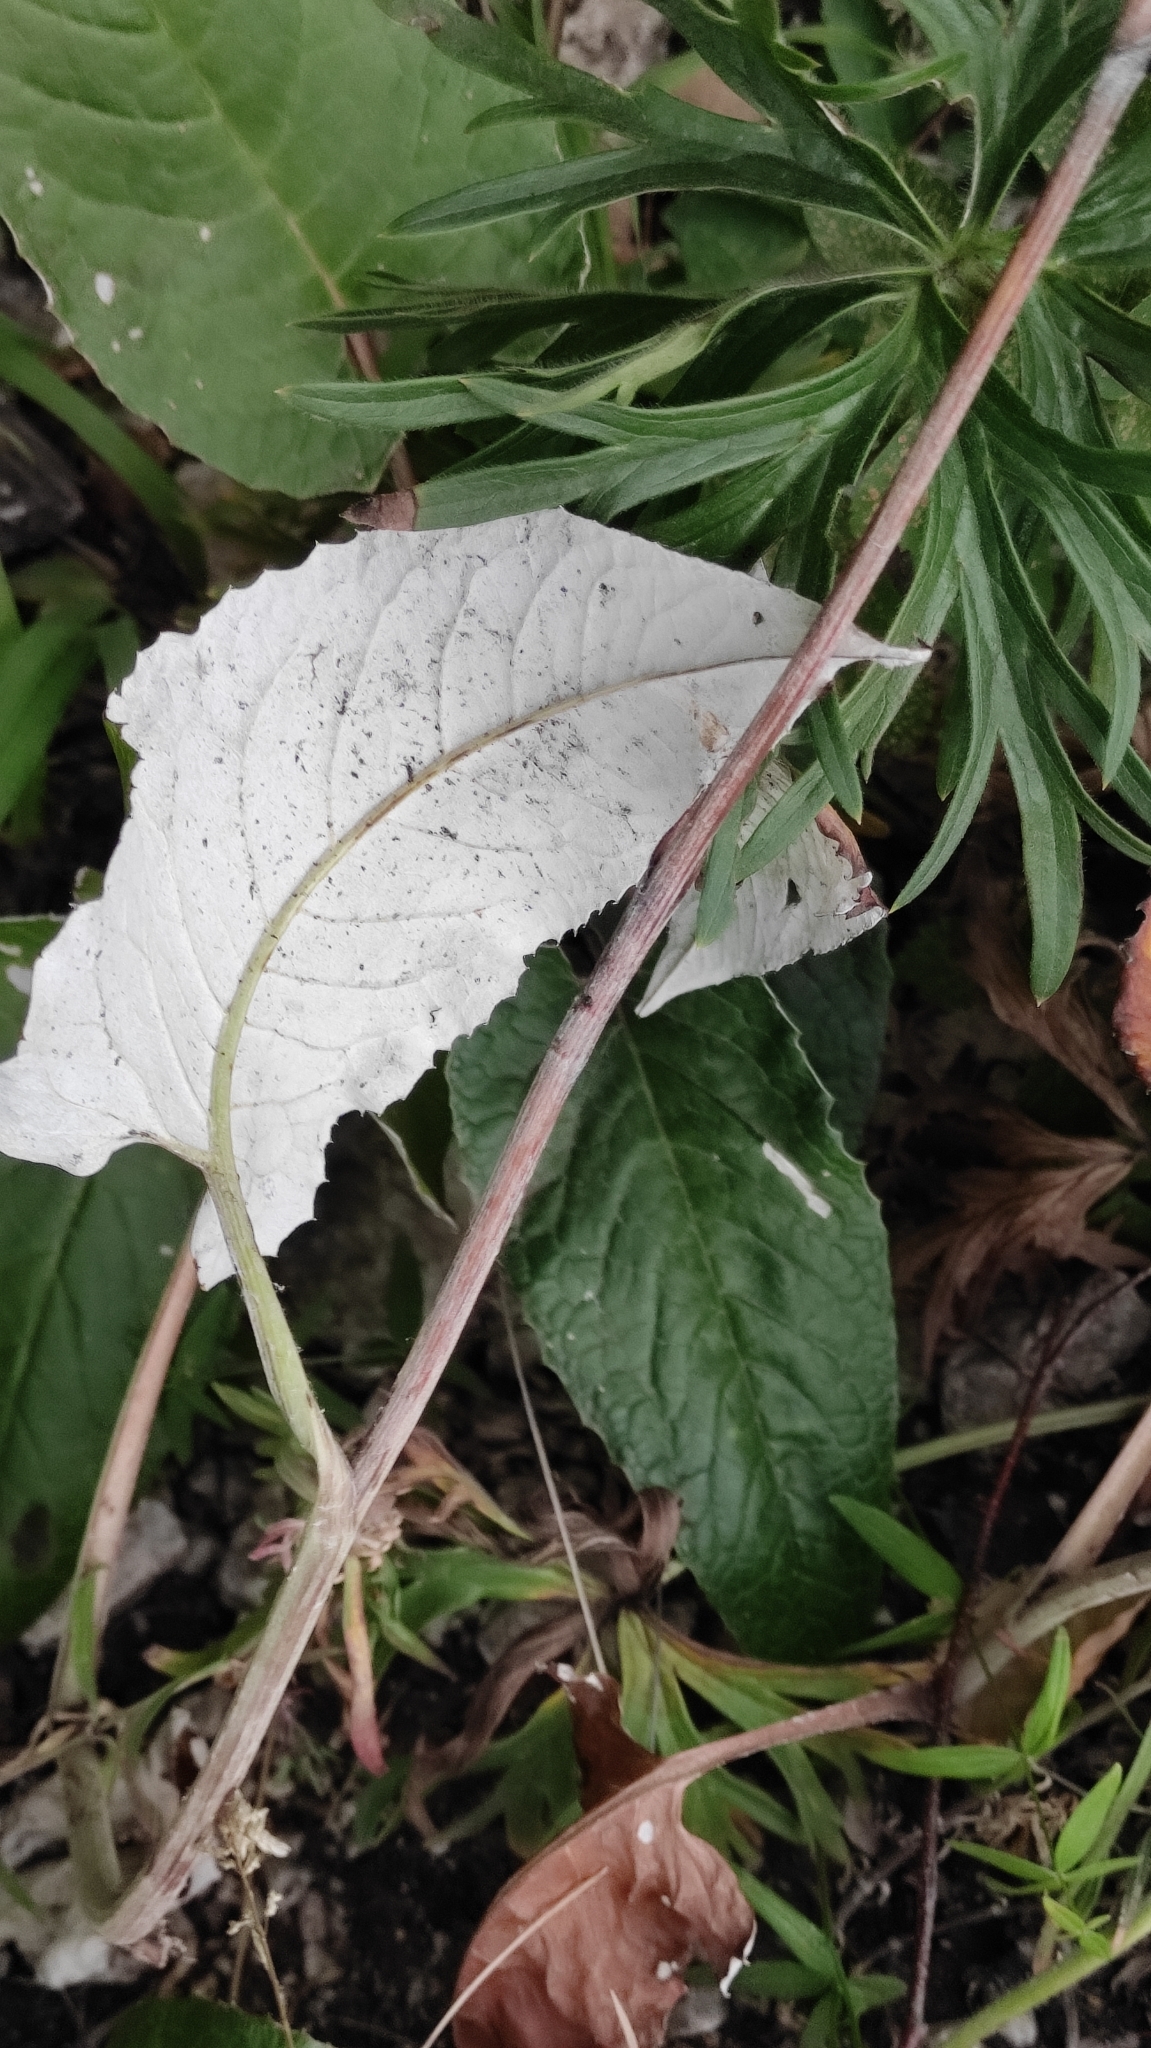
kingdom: Plantae
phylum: Tracheophyta
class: Magnoliopsida
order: Asterales
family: Asteraceae
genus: Saussurea
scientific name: Saussurea controversa
